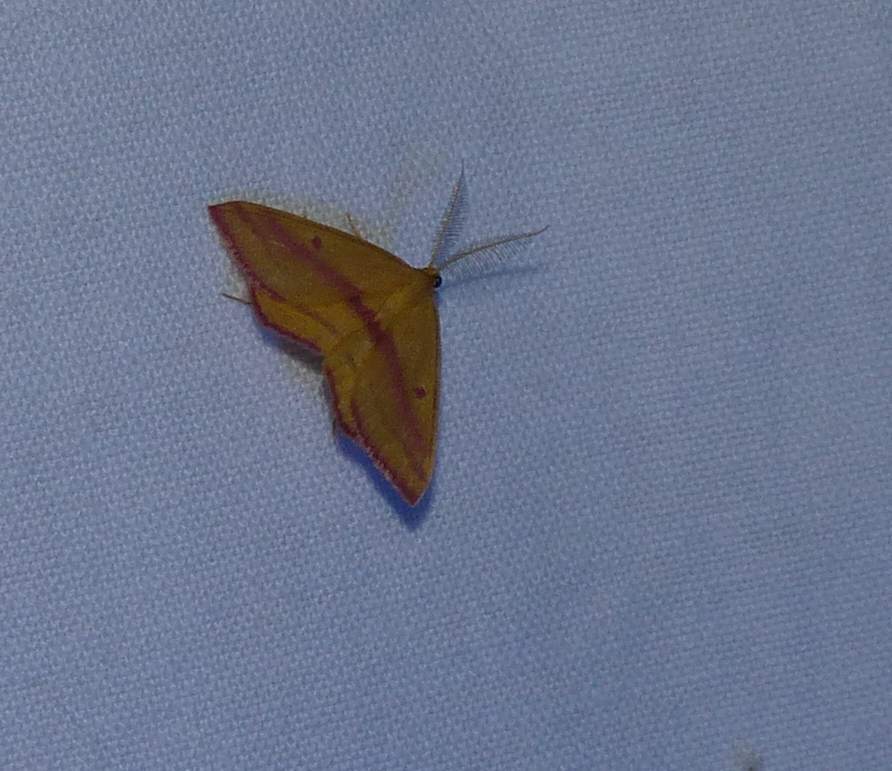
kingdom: Animalia
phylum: Arthropoda
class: Insecta
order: Lepidoptera
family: Geometridae
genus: Haematopis
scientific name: Haematopis grataria
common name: Chickweed geometer
